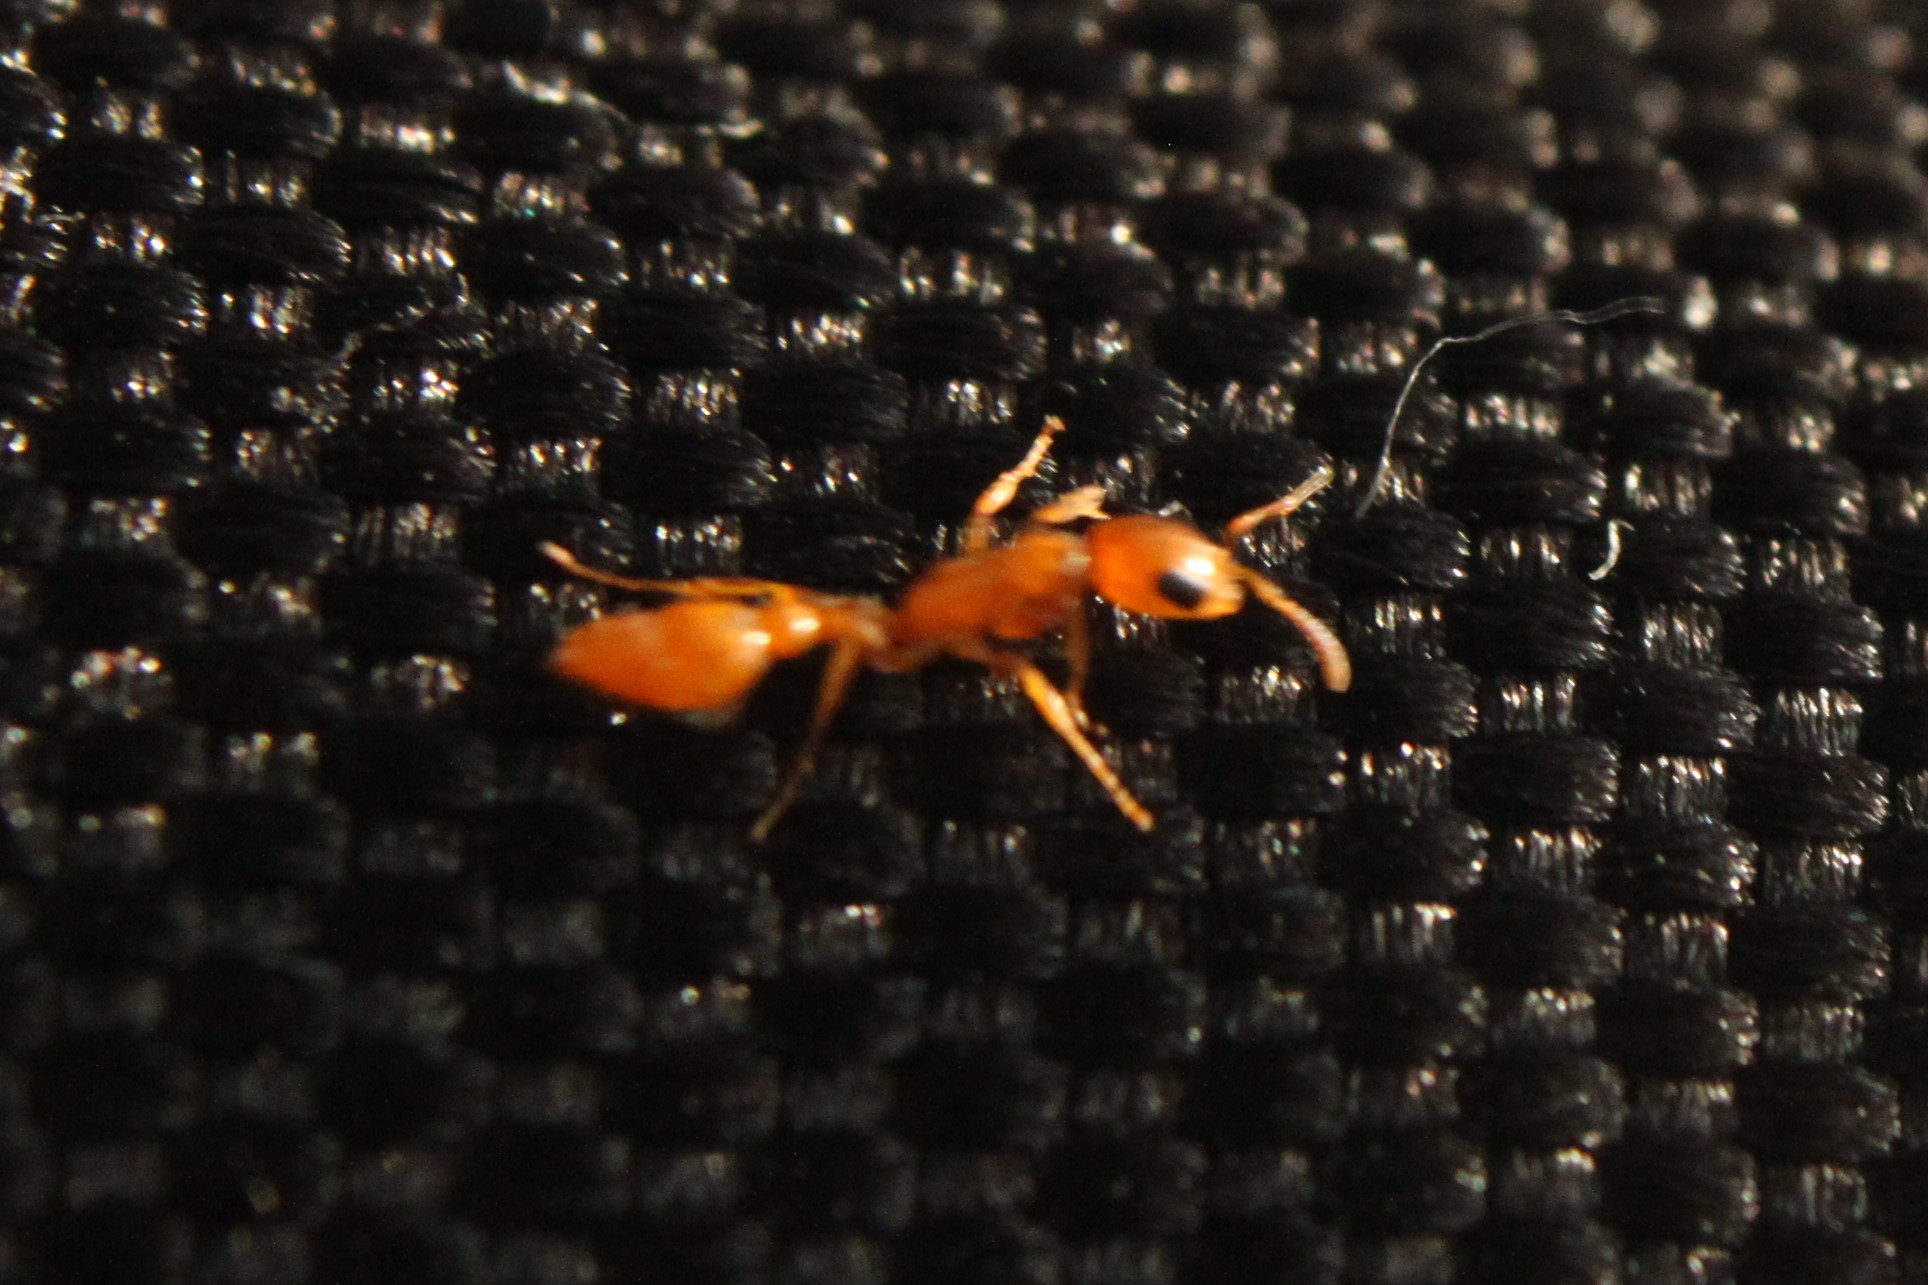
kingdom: Animalia
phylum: Arthropoda
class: Insecta
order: Hymenoptera
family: Formicidae
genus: Pseudomyrmex
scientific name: Pseudomyrmex pallidus
